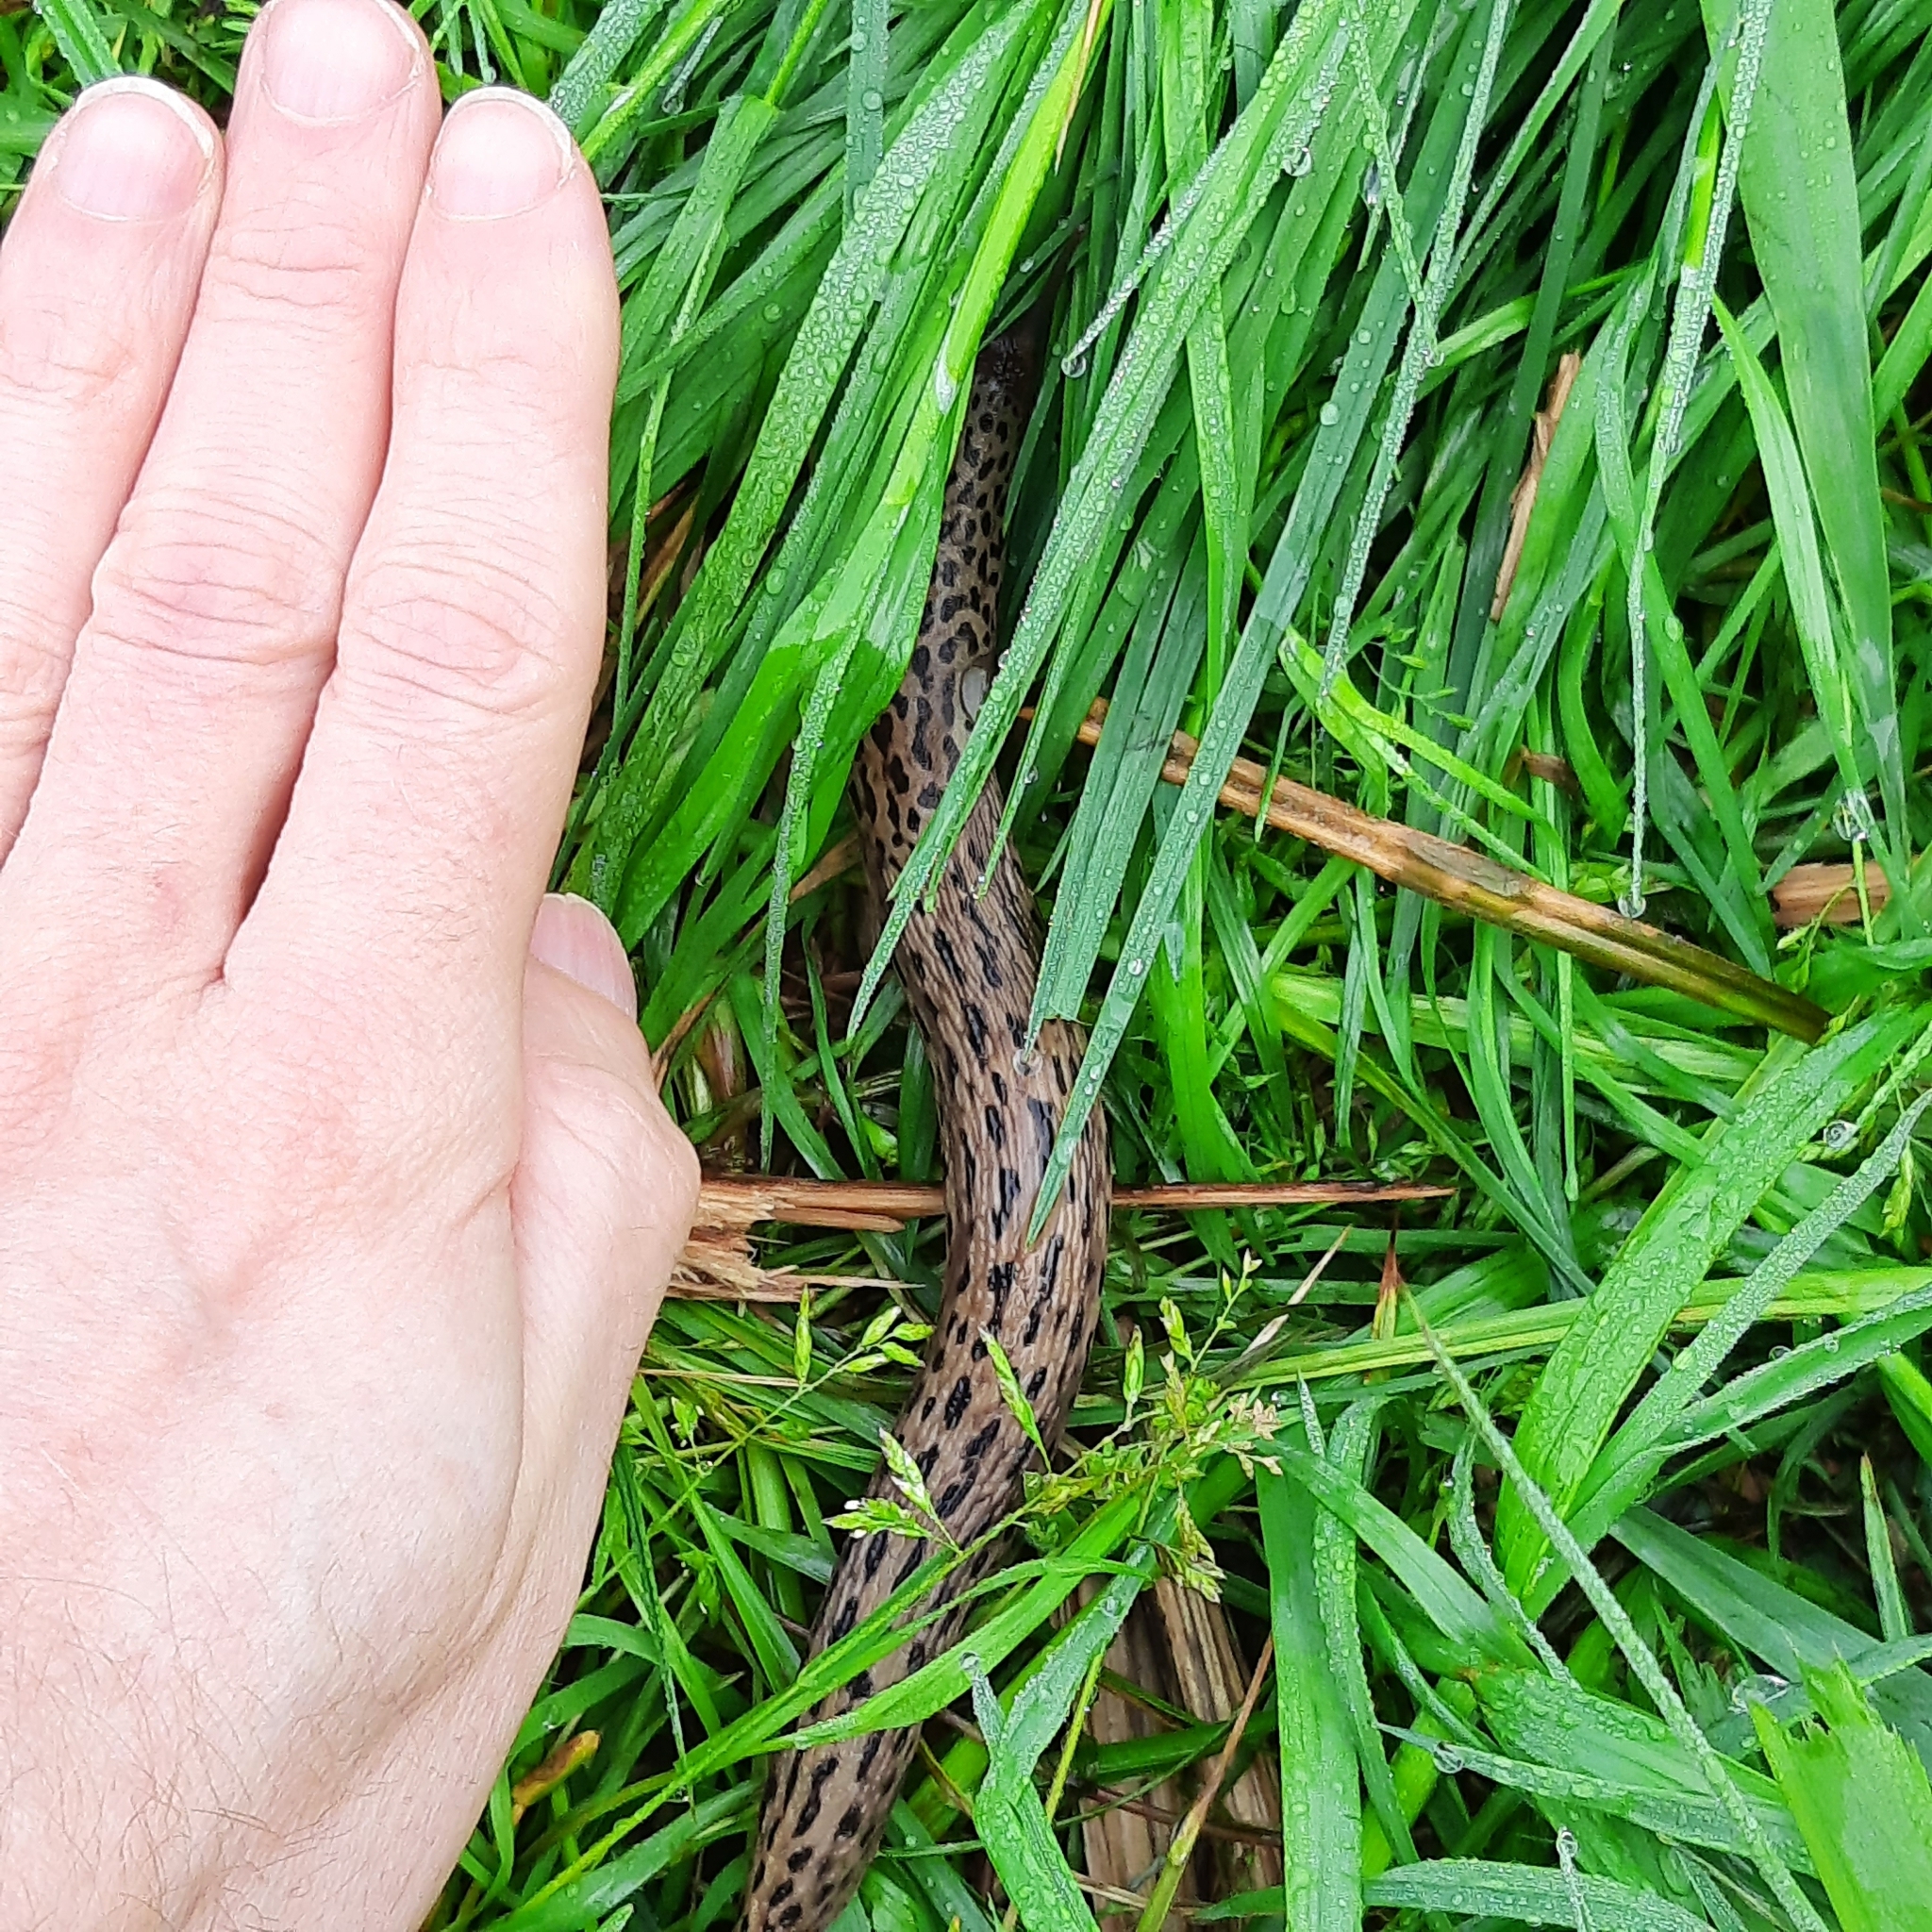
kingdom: Animalia
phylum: Mollusca
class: Gastropoda
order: Stylommatophora
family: Limacidae
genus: Limax
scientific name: Limax maximus
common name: Great grey slug
